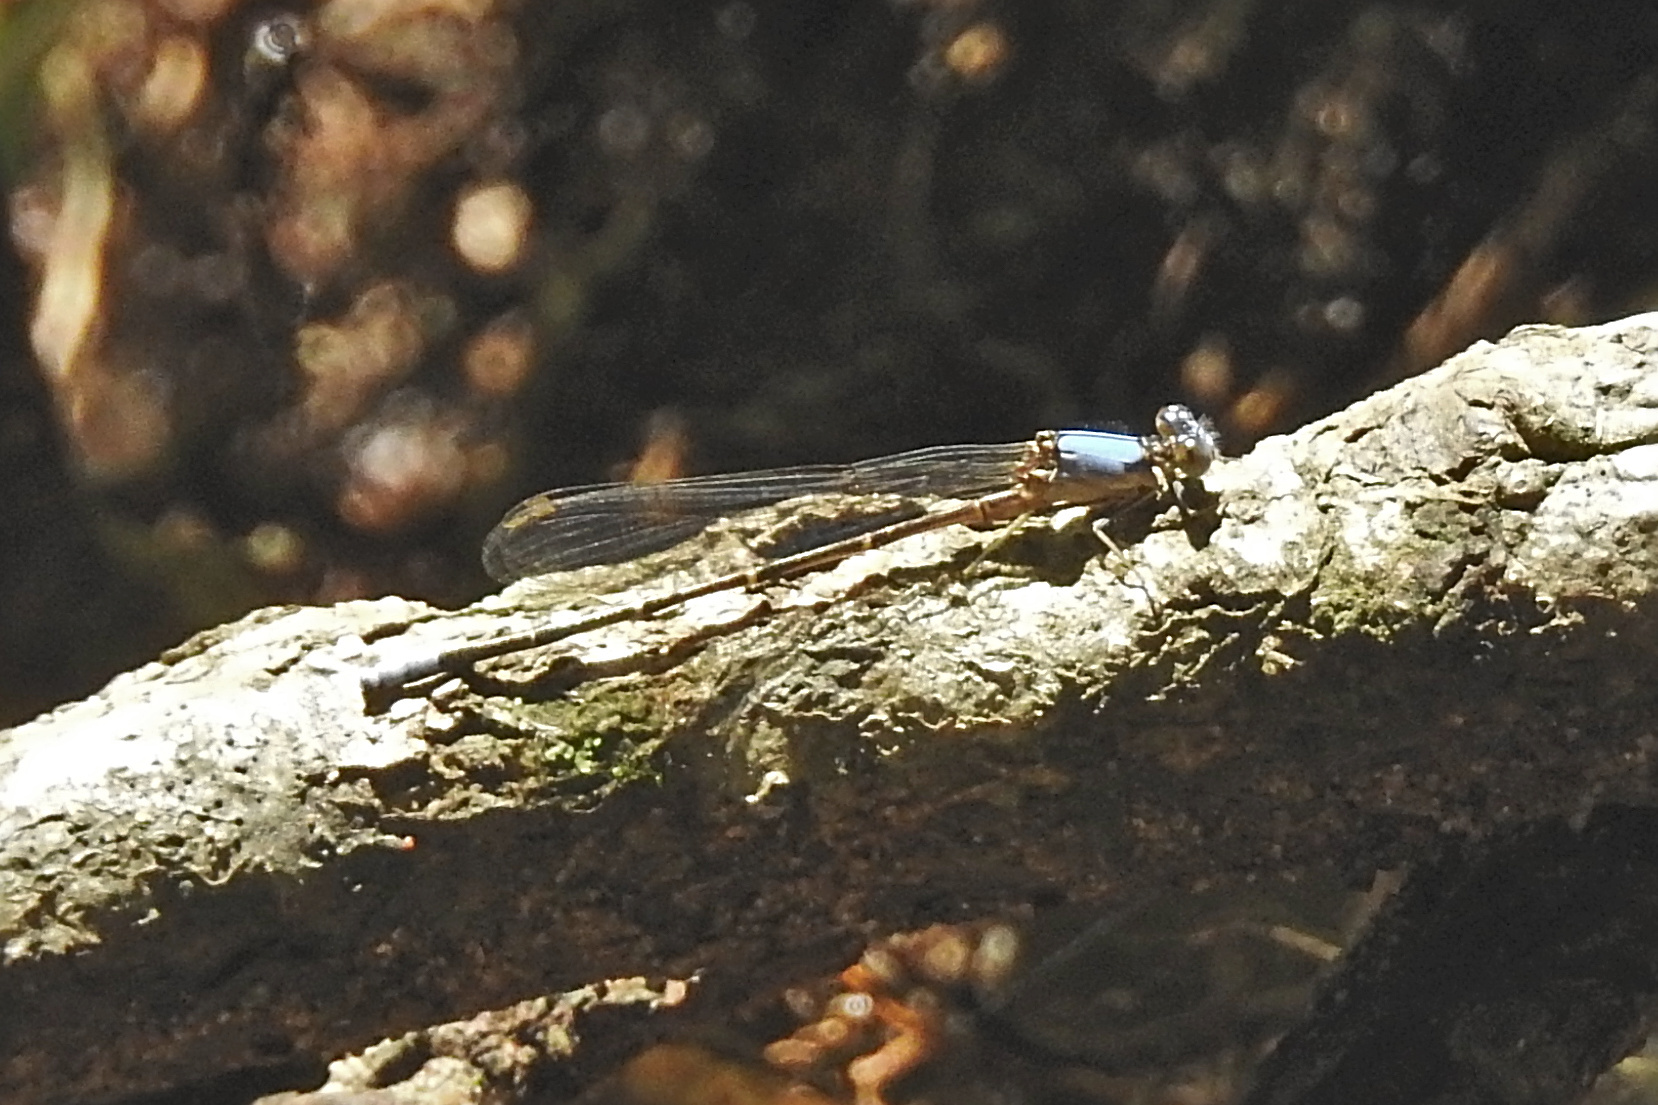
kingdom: Animalia
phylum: Arthropoda
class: Insecta
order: Odonata
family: Coenagrionidae
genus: Argia
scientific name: Argia apicalis
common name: Blue-fronted dancer
